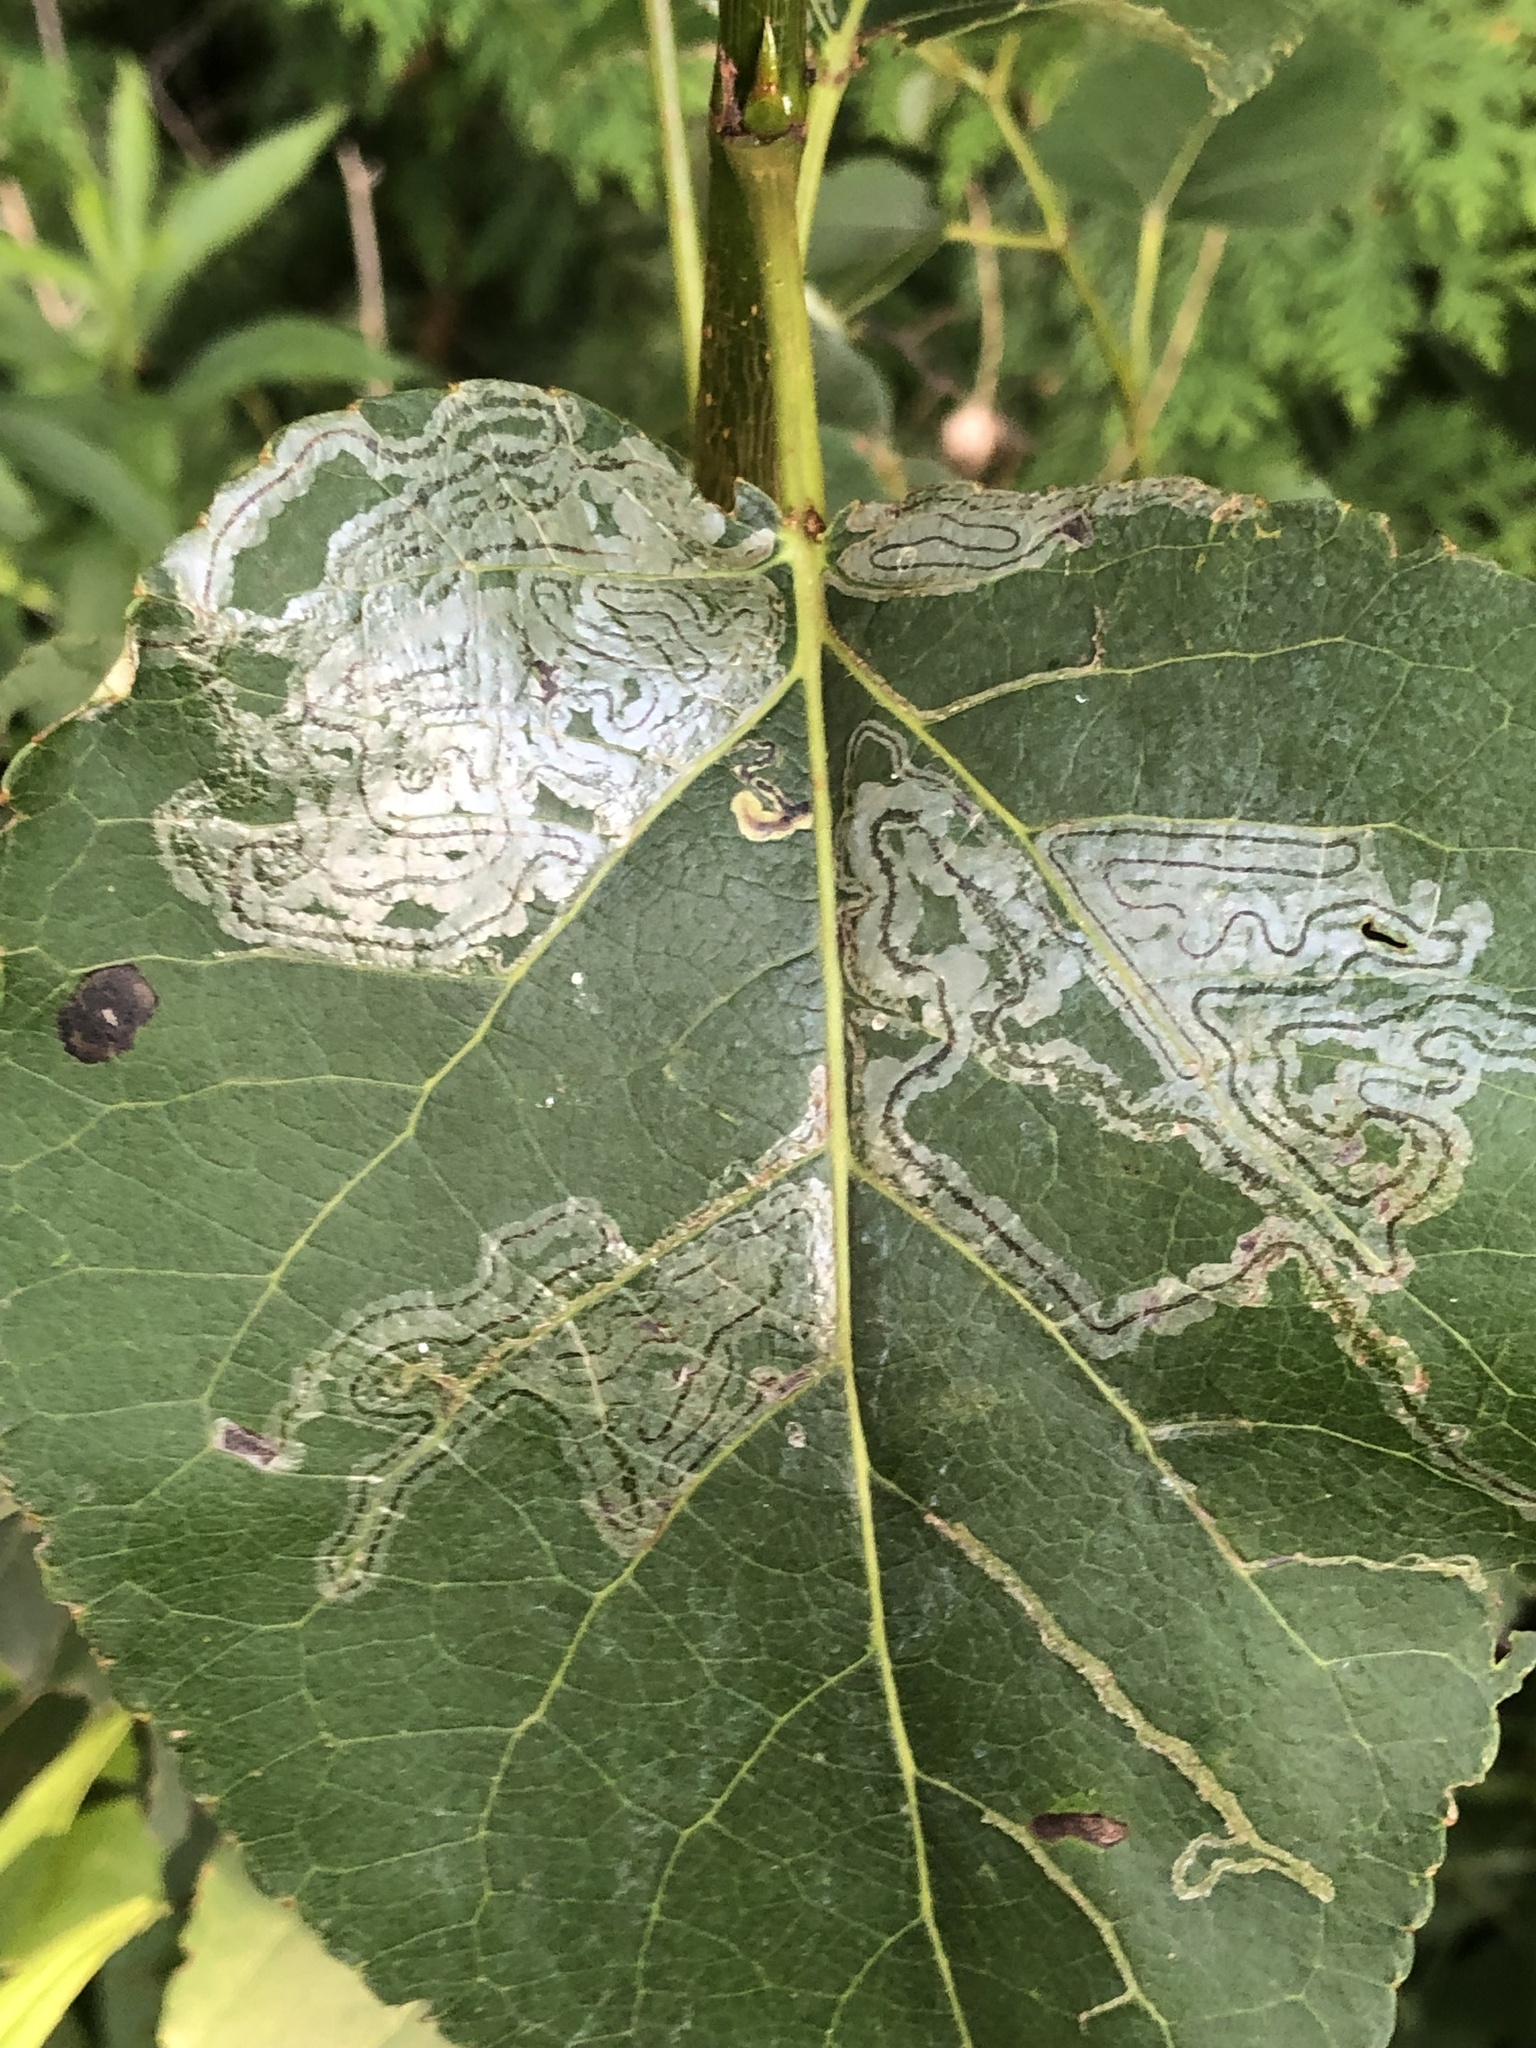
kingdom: Animalia
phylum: Arthropoda
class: Insecta
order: Lepidoptera
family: Gracillariidae
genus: Phyllocnistis
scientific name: Phyllocnistis populiella
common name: Aspen serpentine leafminer moth
